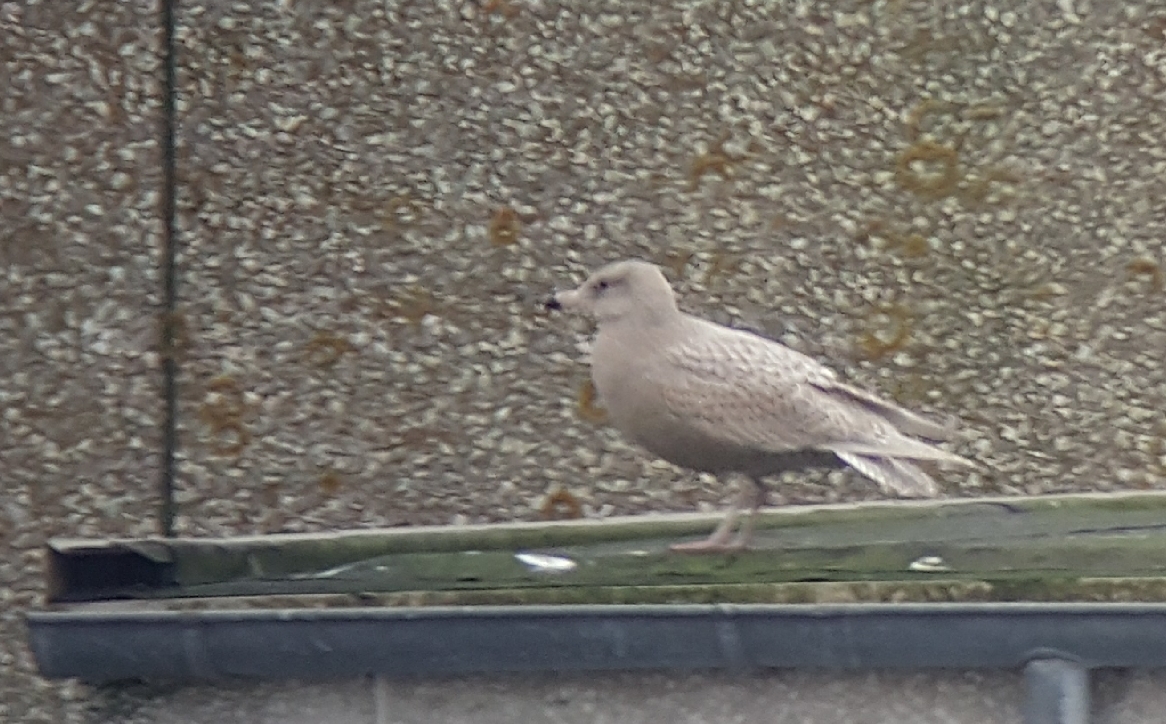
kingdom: Animalia
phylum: Chordata
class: Aves
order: Charadriiformes
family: Laridae
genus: Larus
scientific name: Larus hyperboreus
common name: Glaucous gull
